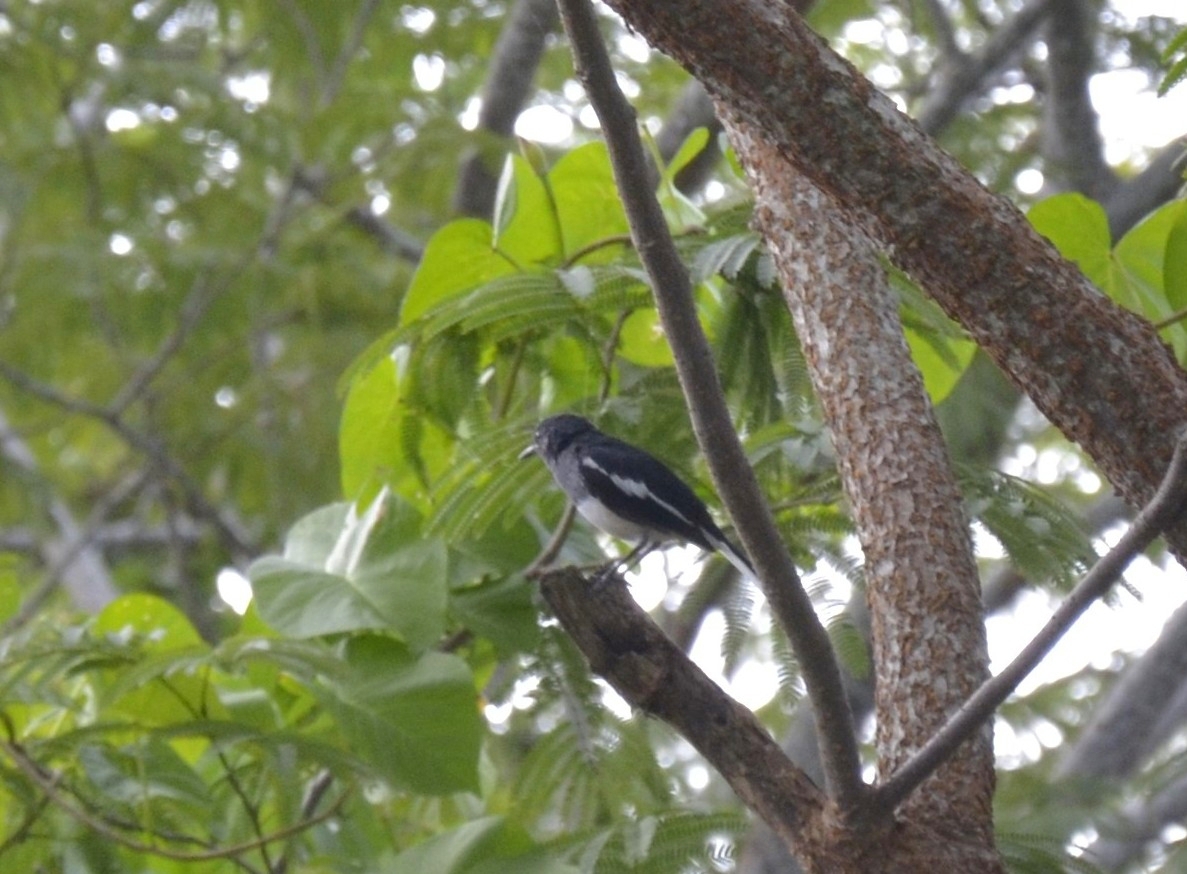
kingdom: Animalia
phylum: Chordata
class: Aves
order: Passeriformes
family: Muscicapidae
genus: Copsychus
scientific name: Copsychus saularis
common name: Oriental magpie-robin
